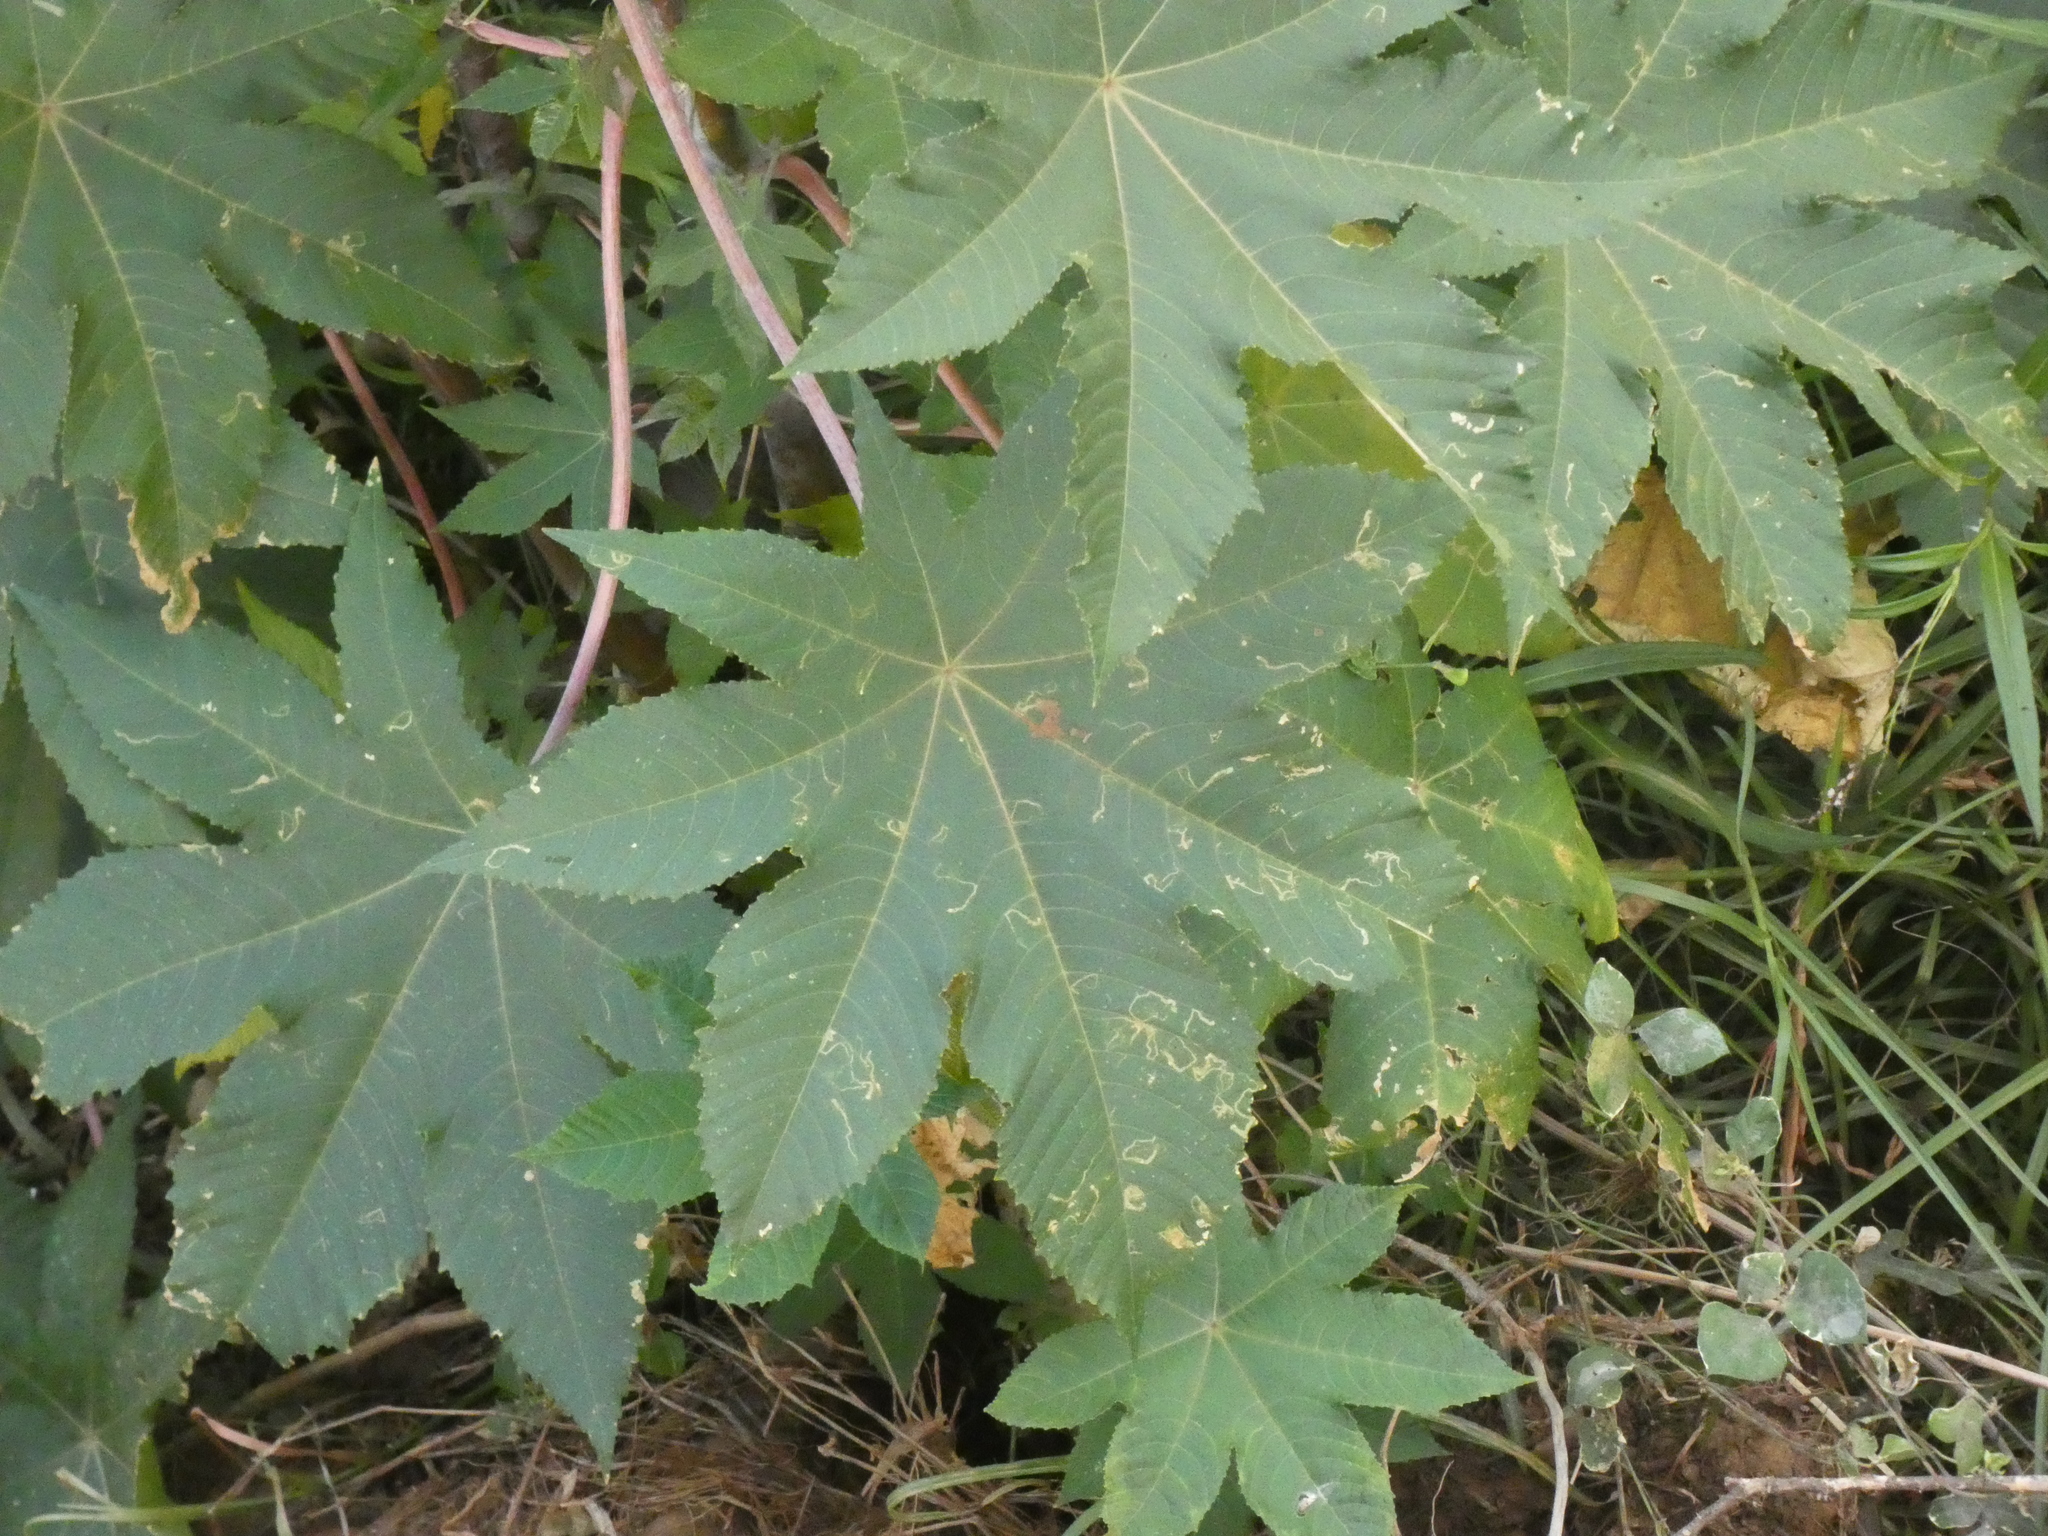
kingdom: Plantae
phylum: Tracheophyta
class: Magnoliopsida
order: Malpighiales
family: Euphorbiaceae
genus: Ricinus
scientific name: Ricinus communis
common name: Castor-oil-plant
